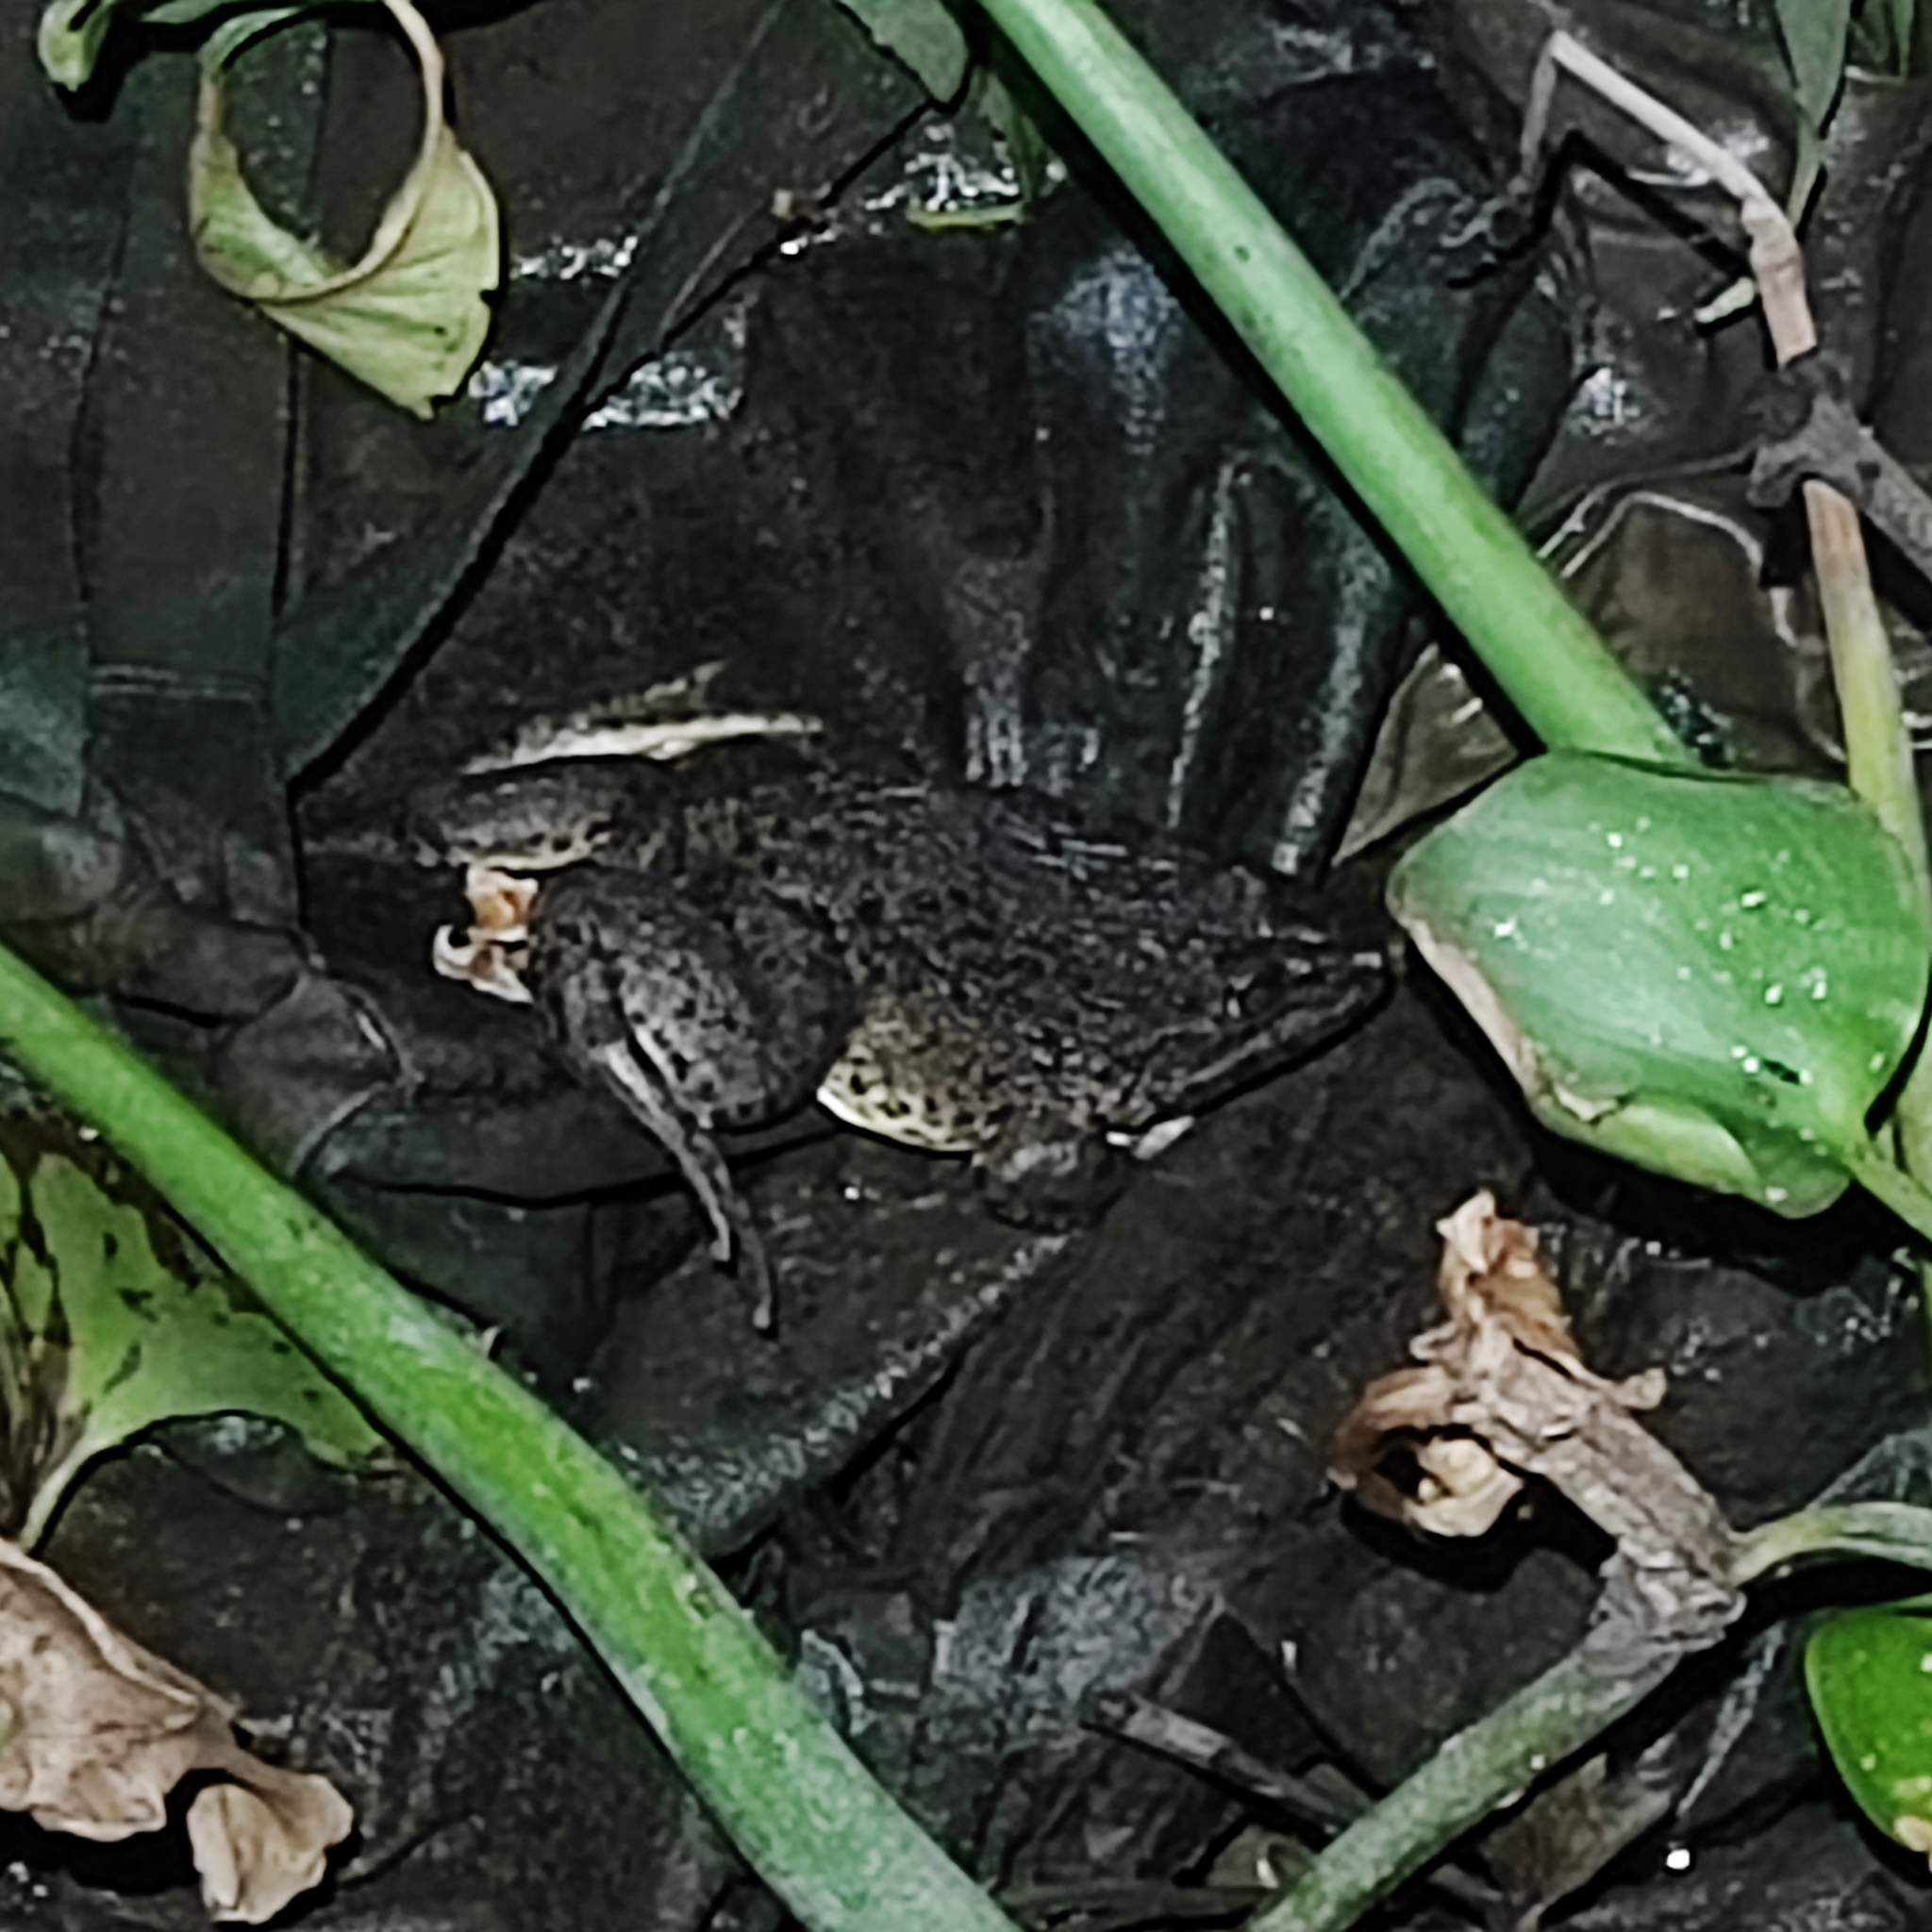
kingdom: Animalia
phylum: Chordata
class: Amphibia
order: Anura
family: Dicroglossidae
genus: Hoplobatrachus
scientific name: Hoplobatrachus rugulosus
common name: Chinese edible frog
